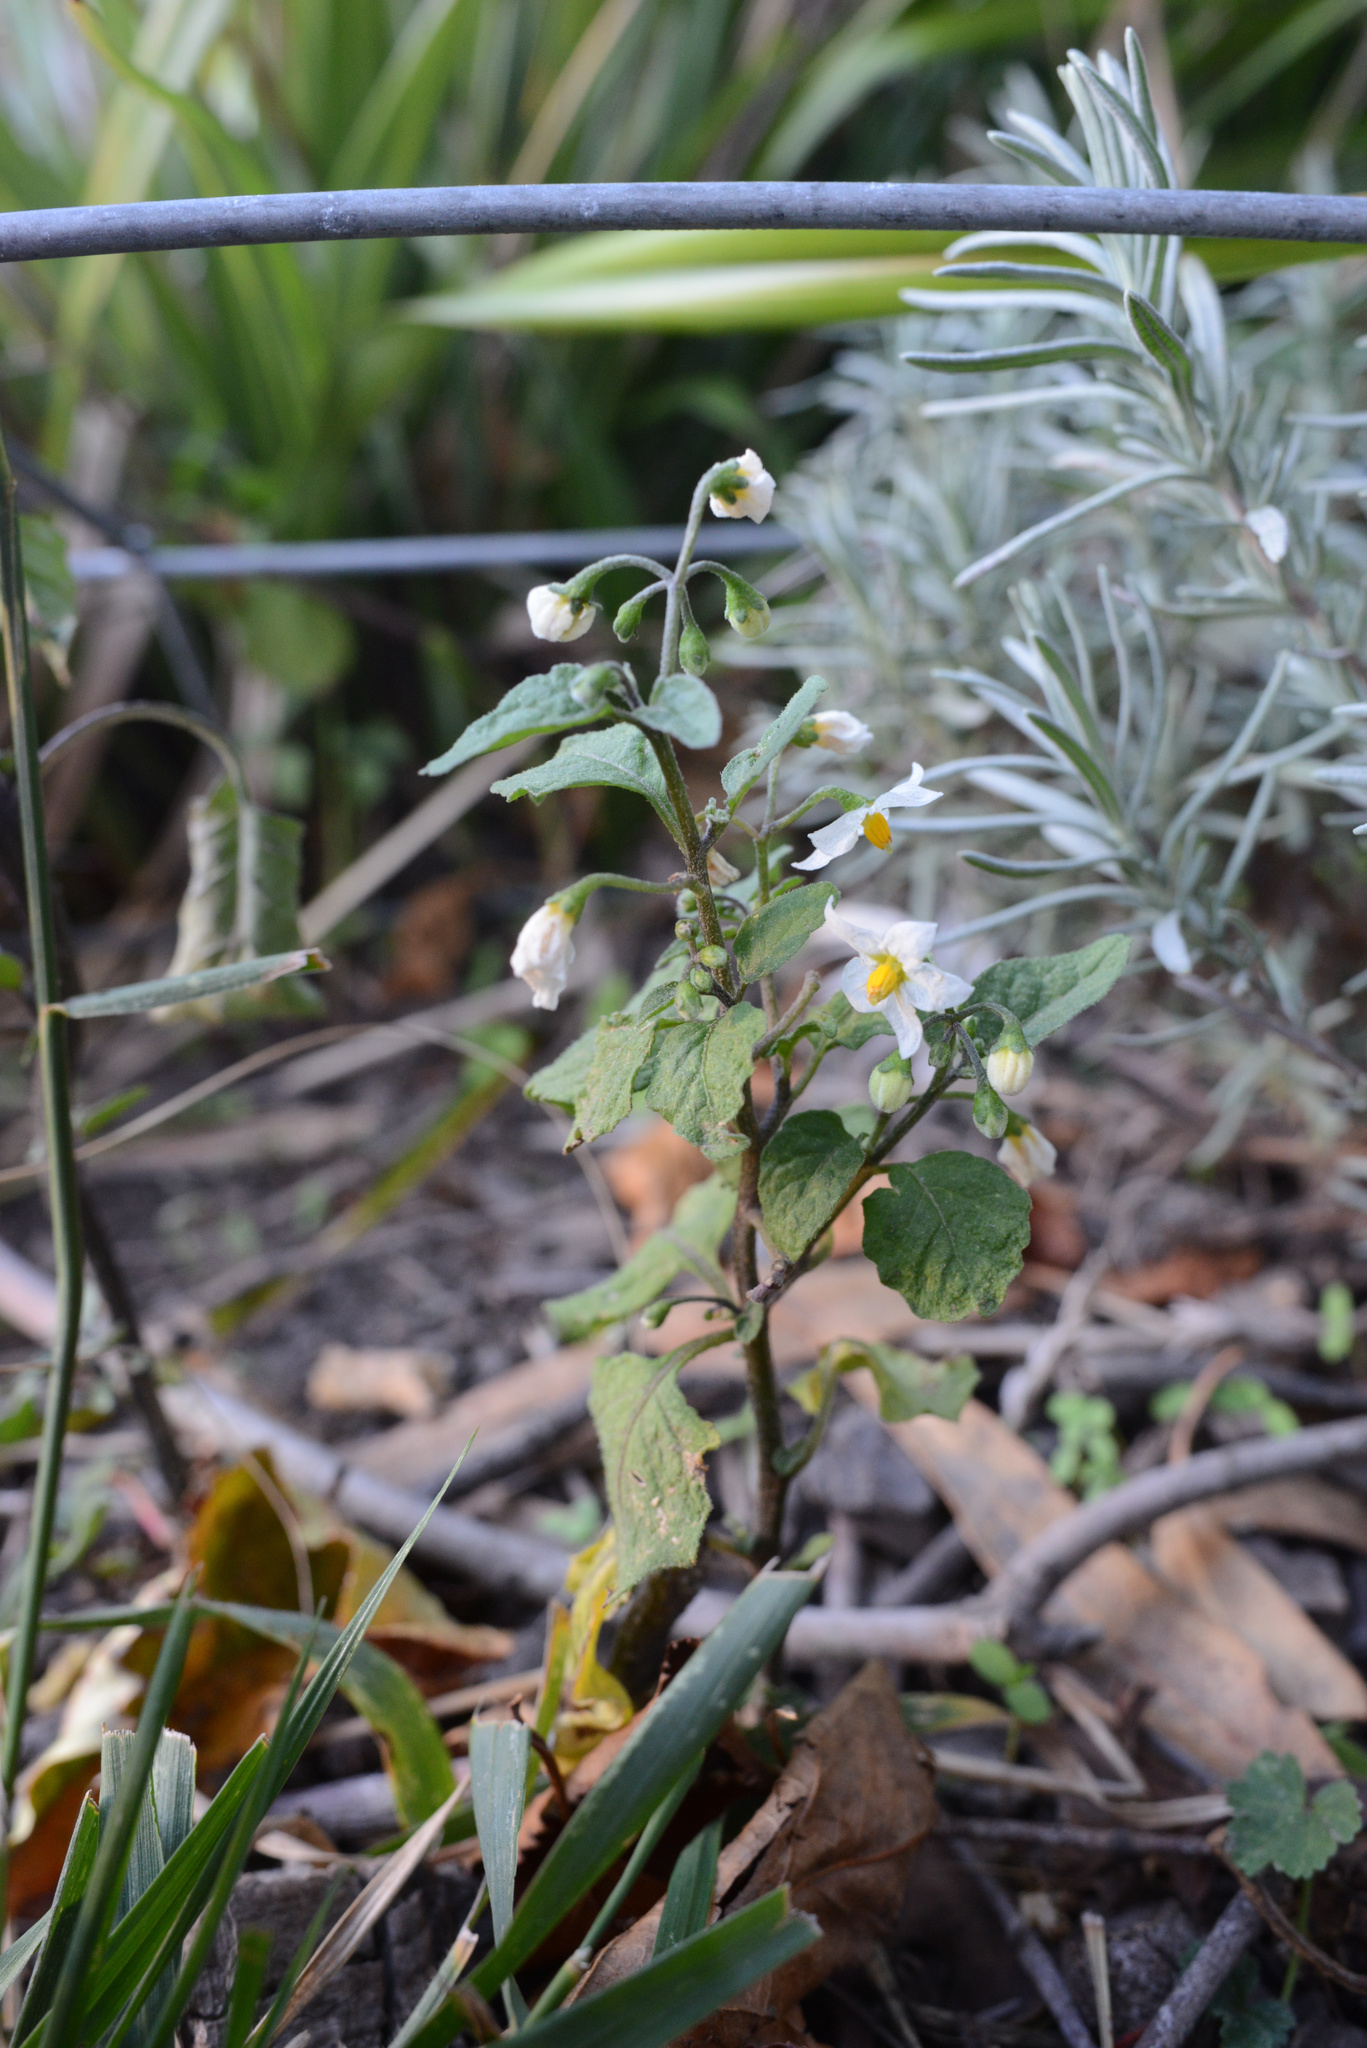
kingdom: Plantae
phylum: Tracheophyta
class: Magnoliopsida
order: Solanales
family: Solanaceae
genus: Solanum
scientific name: Solanum nigrum
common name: Black nightshade
